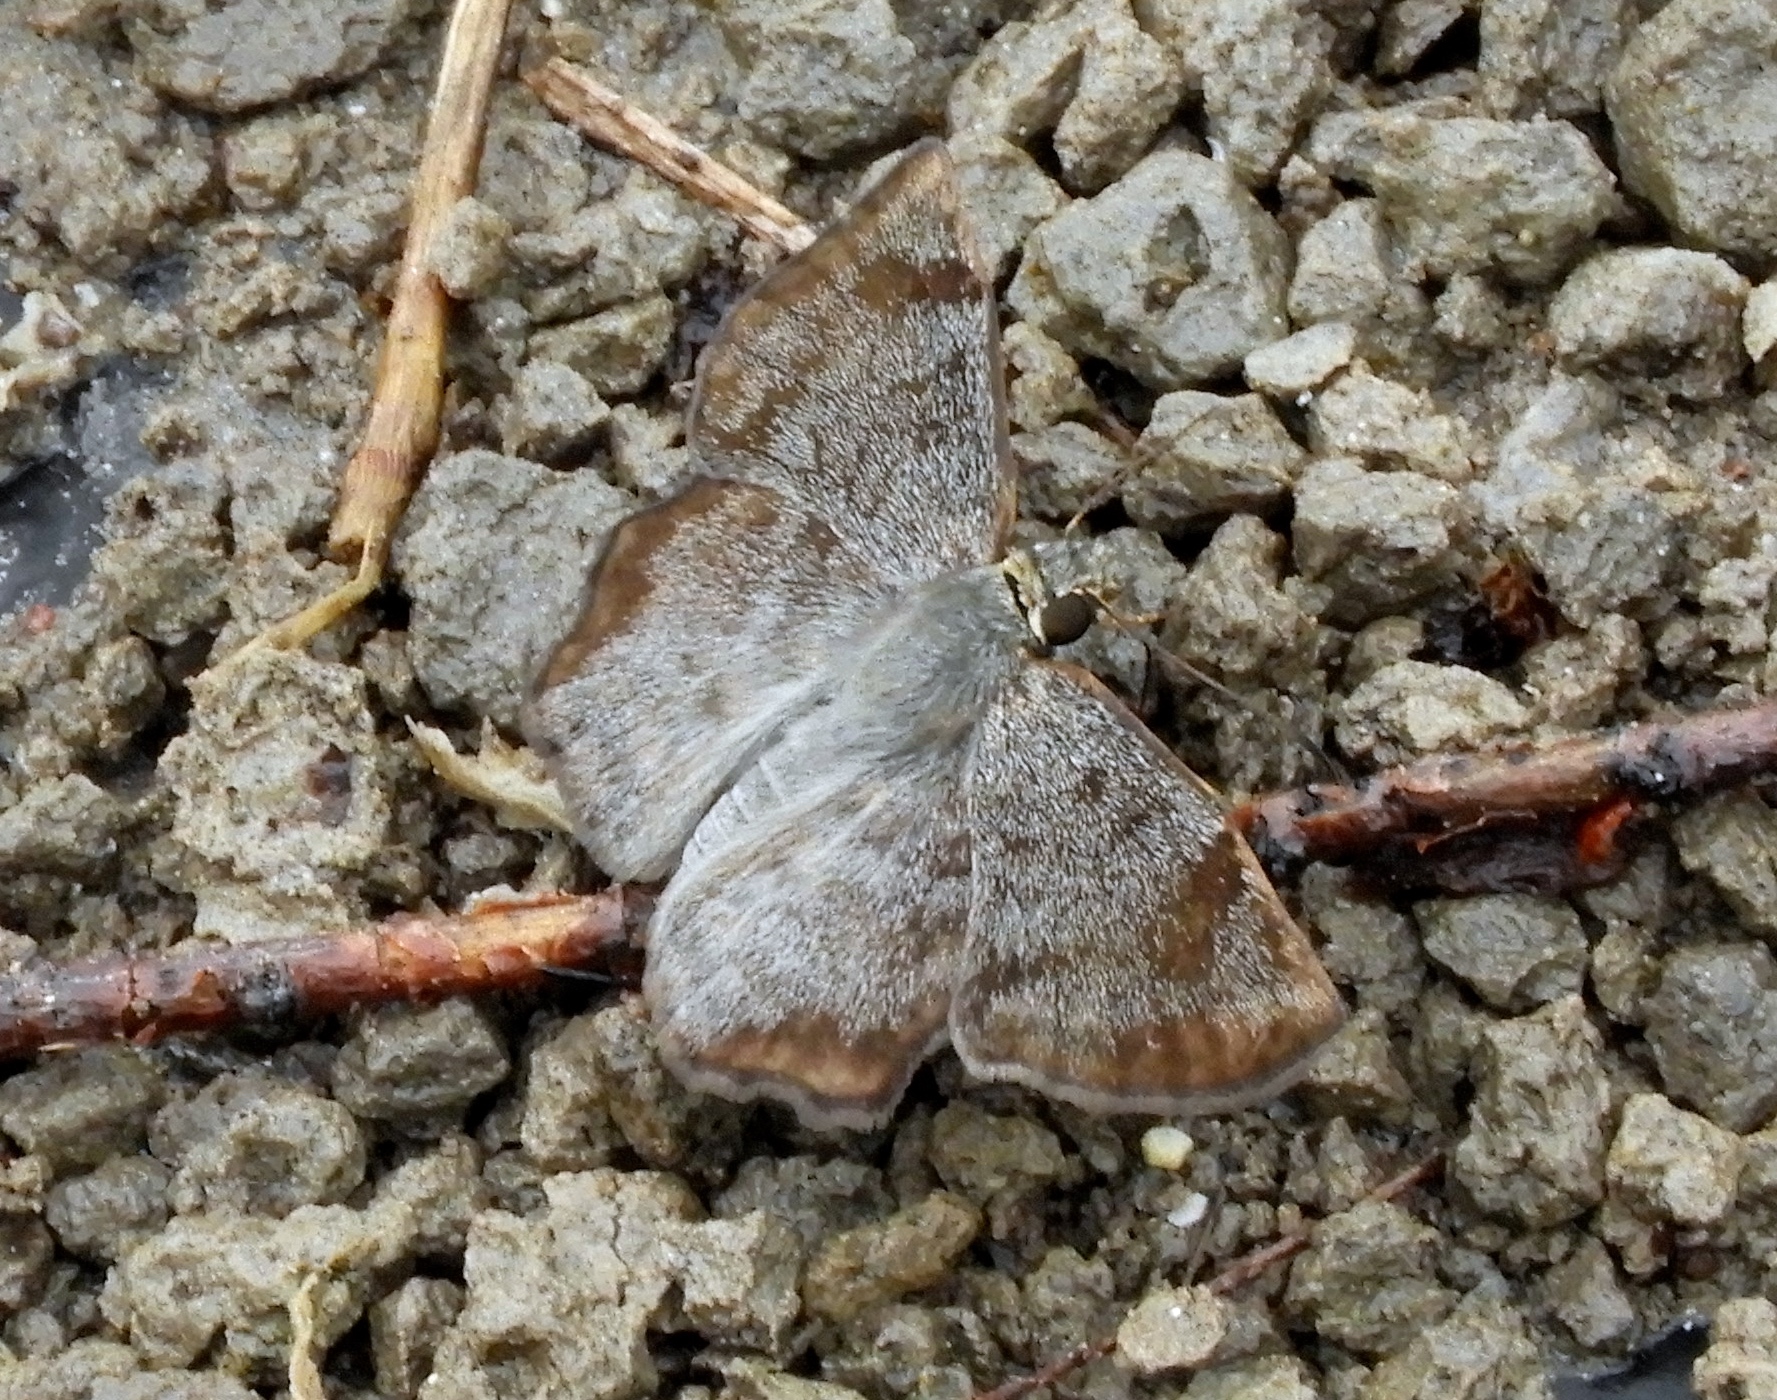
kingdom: Animalia
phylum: Arthropoda
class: Insecta
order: Lepidoptera
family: Hesperiidae
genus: Antigonus
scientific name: Antigonus erosus
